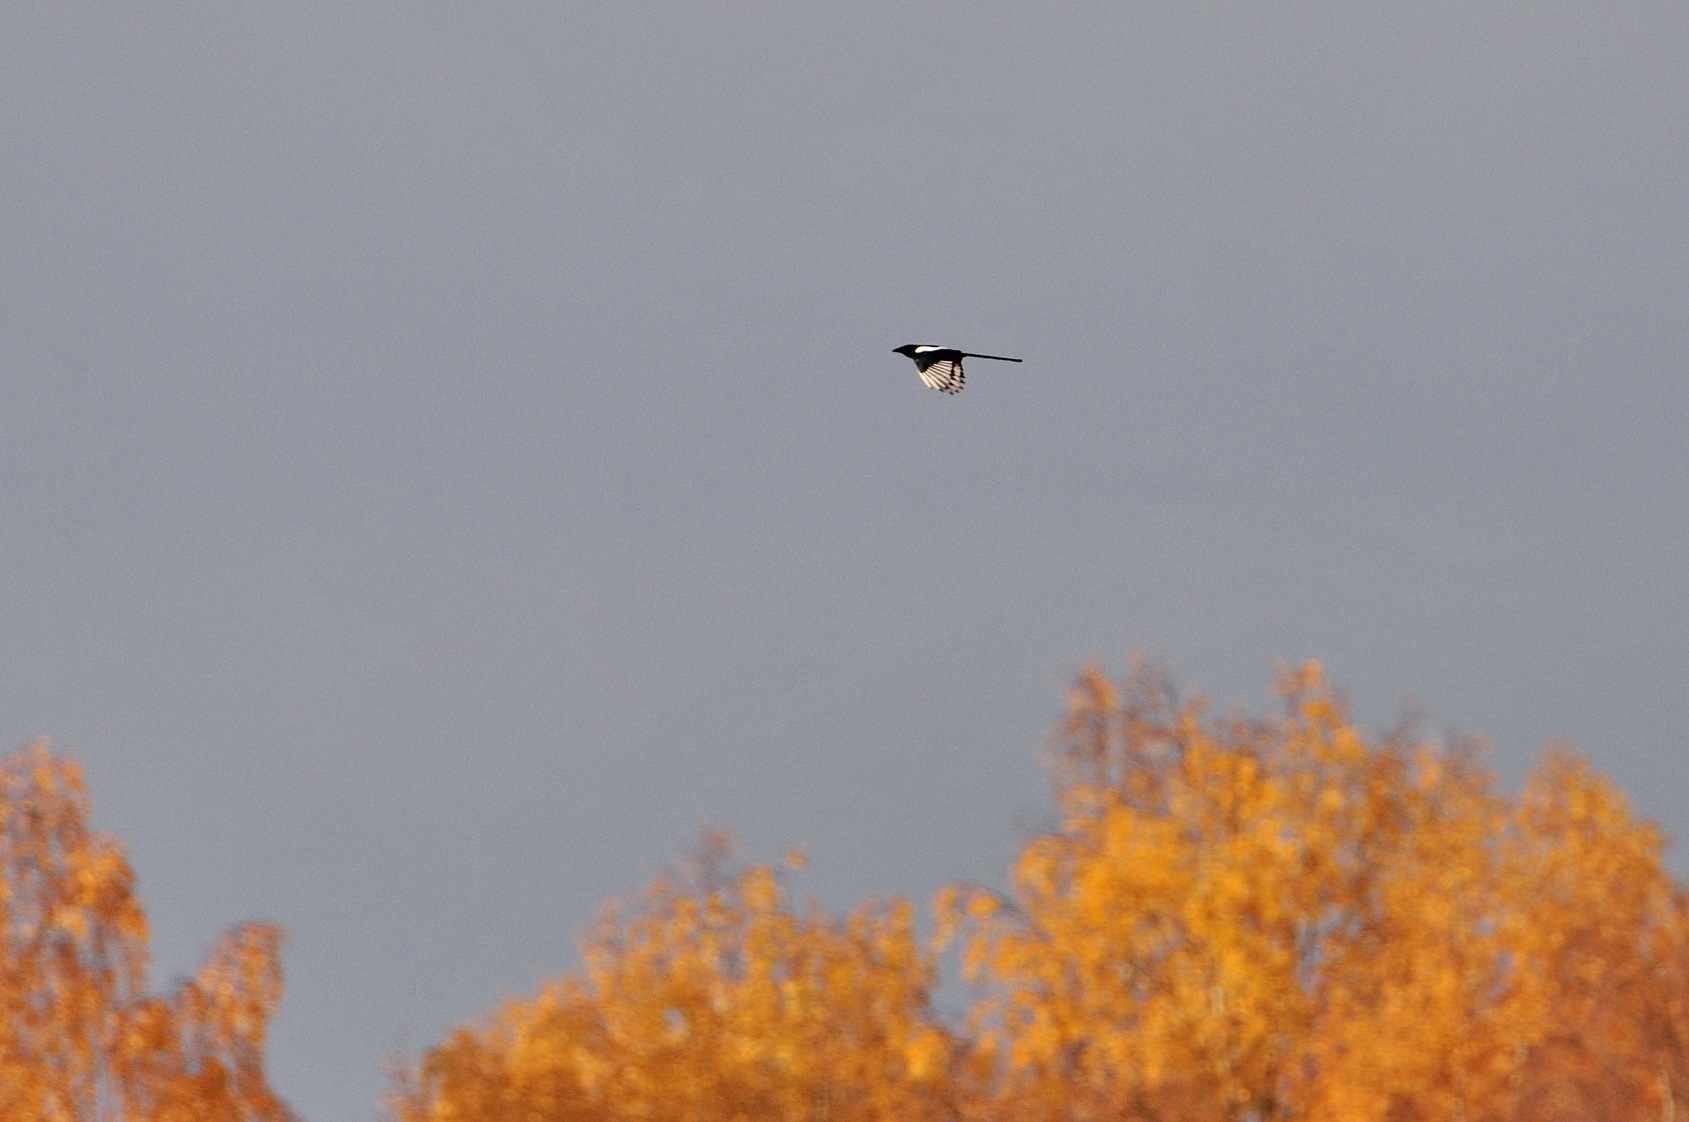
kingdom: Animalia
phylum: Chordata
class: Aves
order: Passeriformes
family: Corvidae
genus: Pica
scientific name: Pica pica
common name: Eurasian magpie
